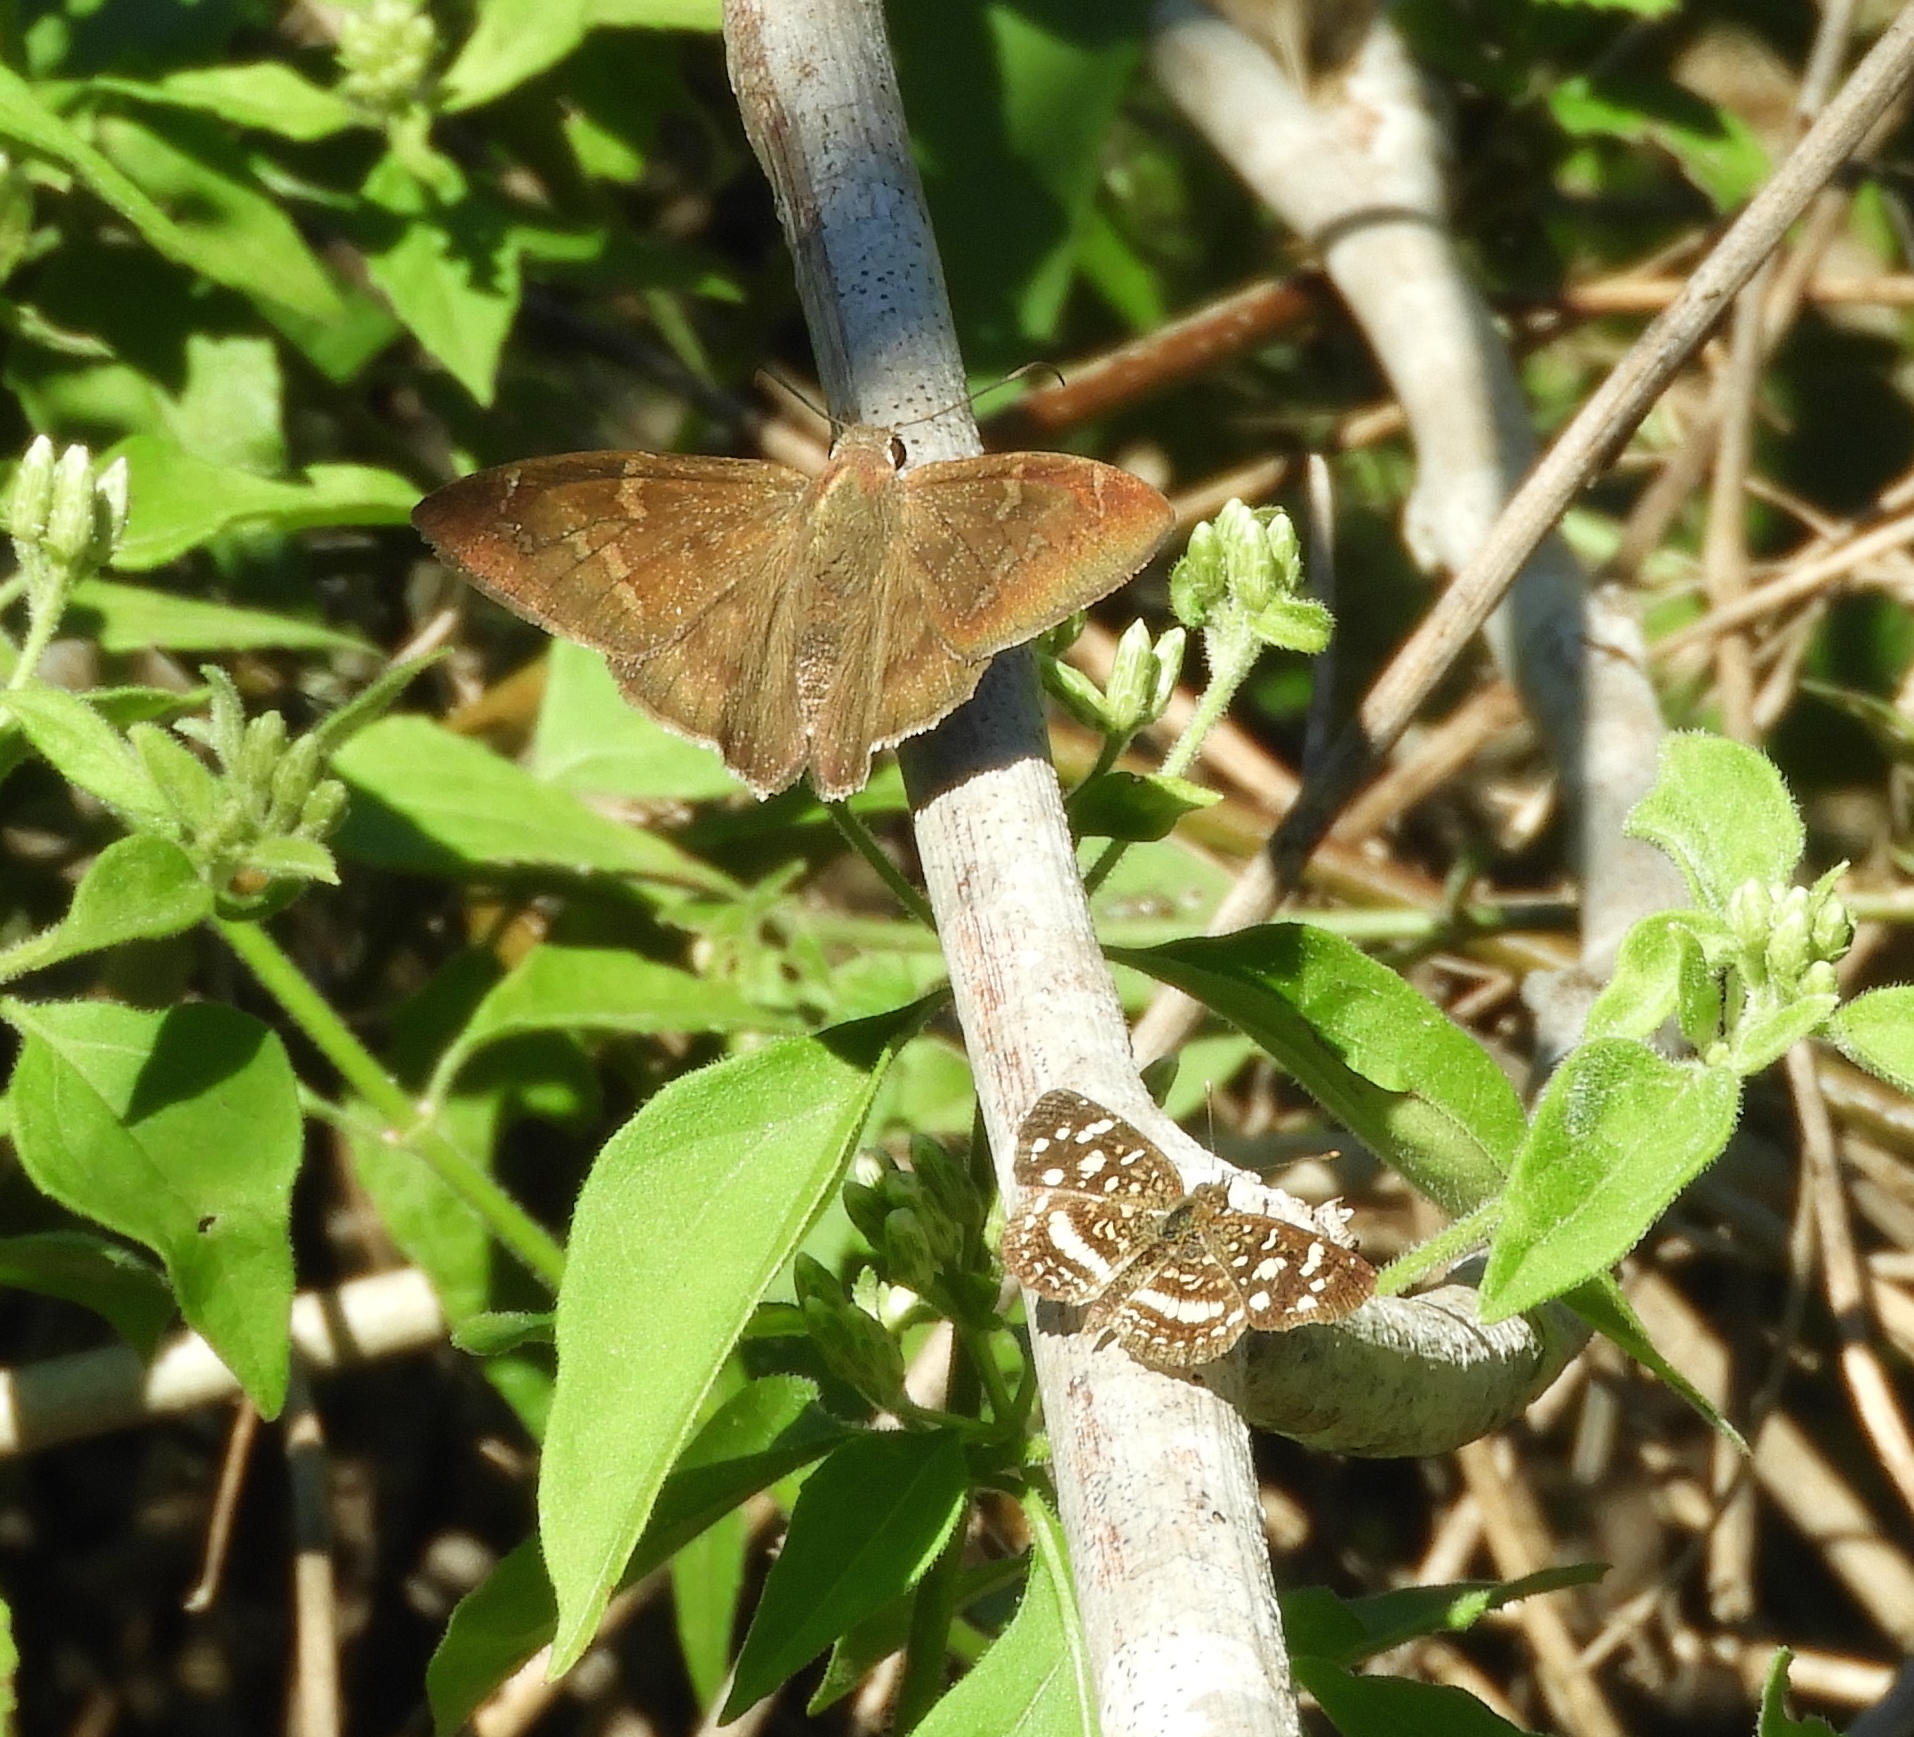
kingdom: Animalia
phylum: Arthropoda
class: Insecta
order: Lepidoptera
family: Nymphalidae
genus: Anthanassa
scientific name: Anthanassa tulcis
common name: Pale-banded crescent
